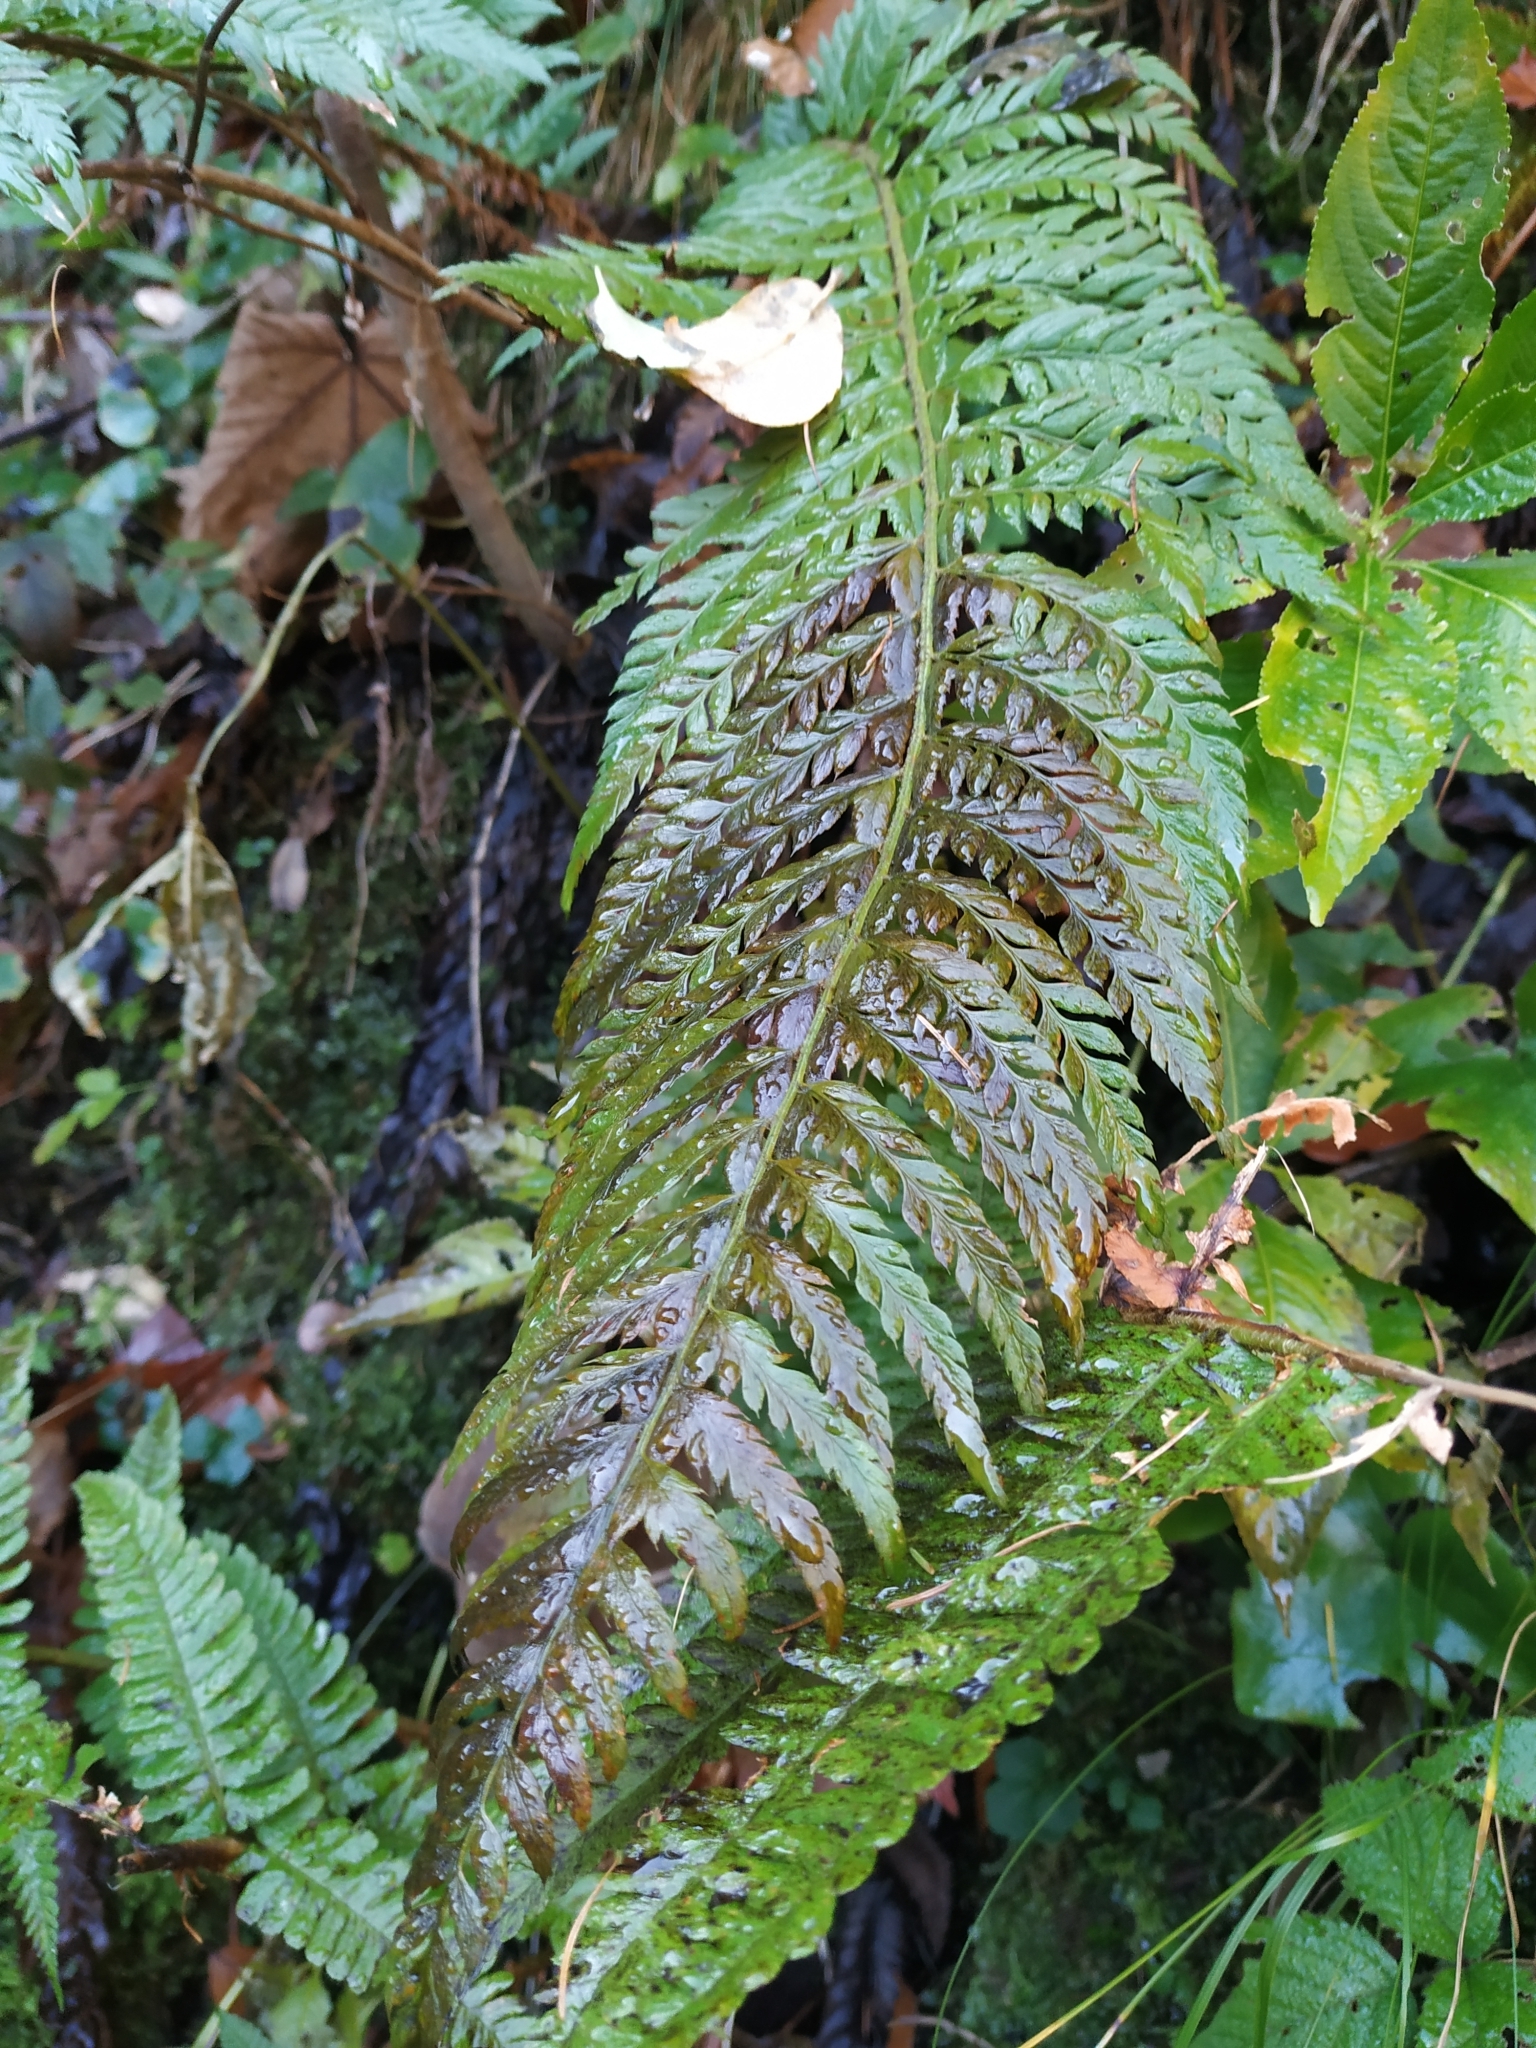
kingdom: Plantae
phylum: Tracheophyta
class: Polypodiopsida
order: Polypodiales
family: Dryopteridaceae
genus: Polystichum
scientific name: Polystichum aculeatum
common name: Hard shield-fern
